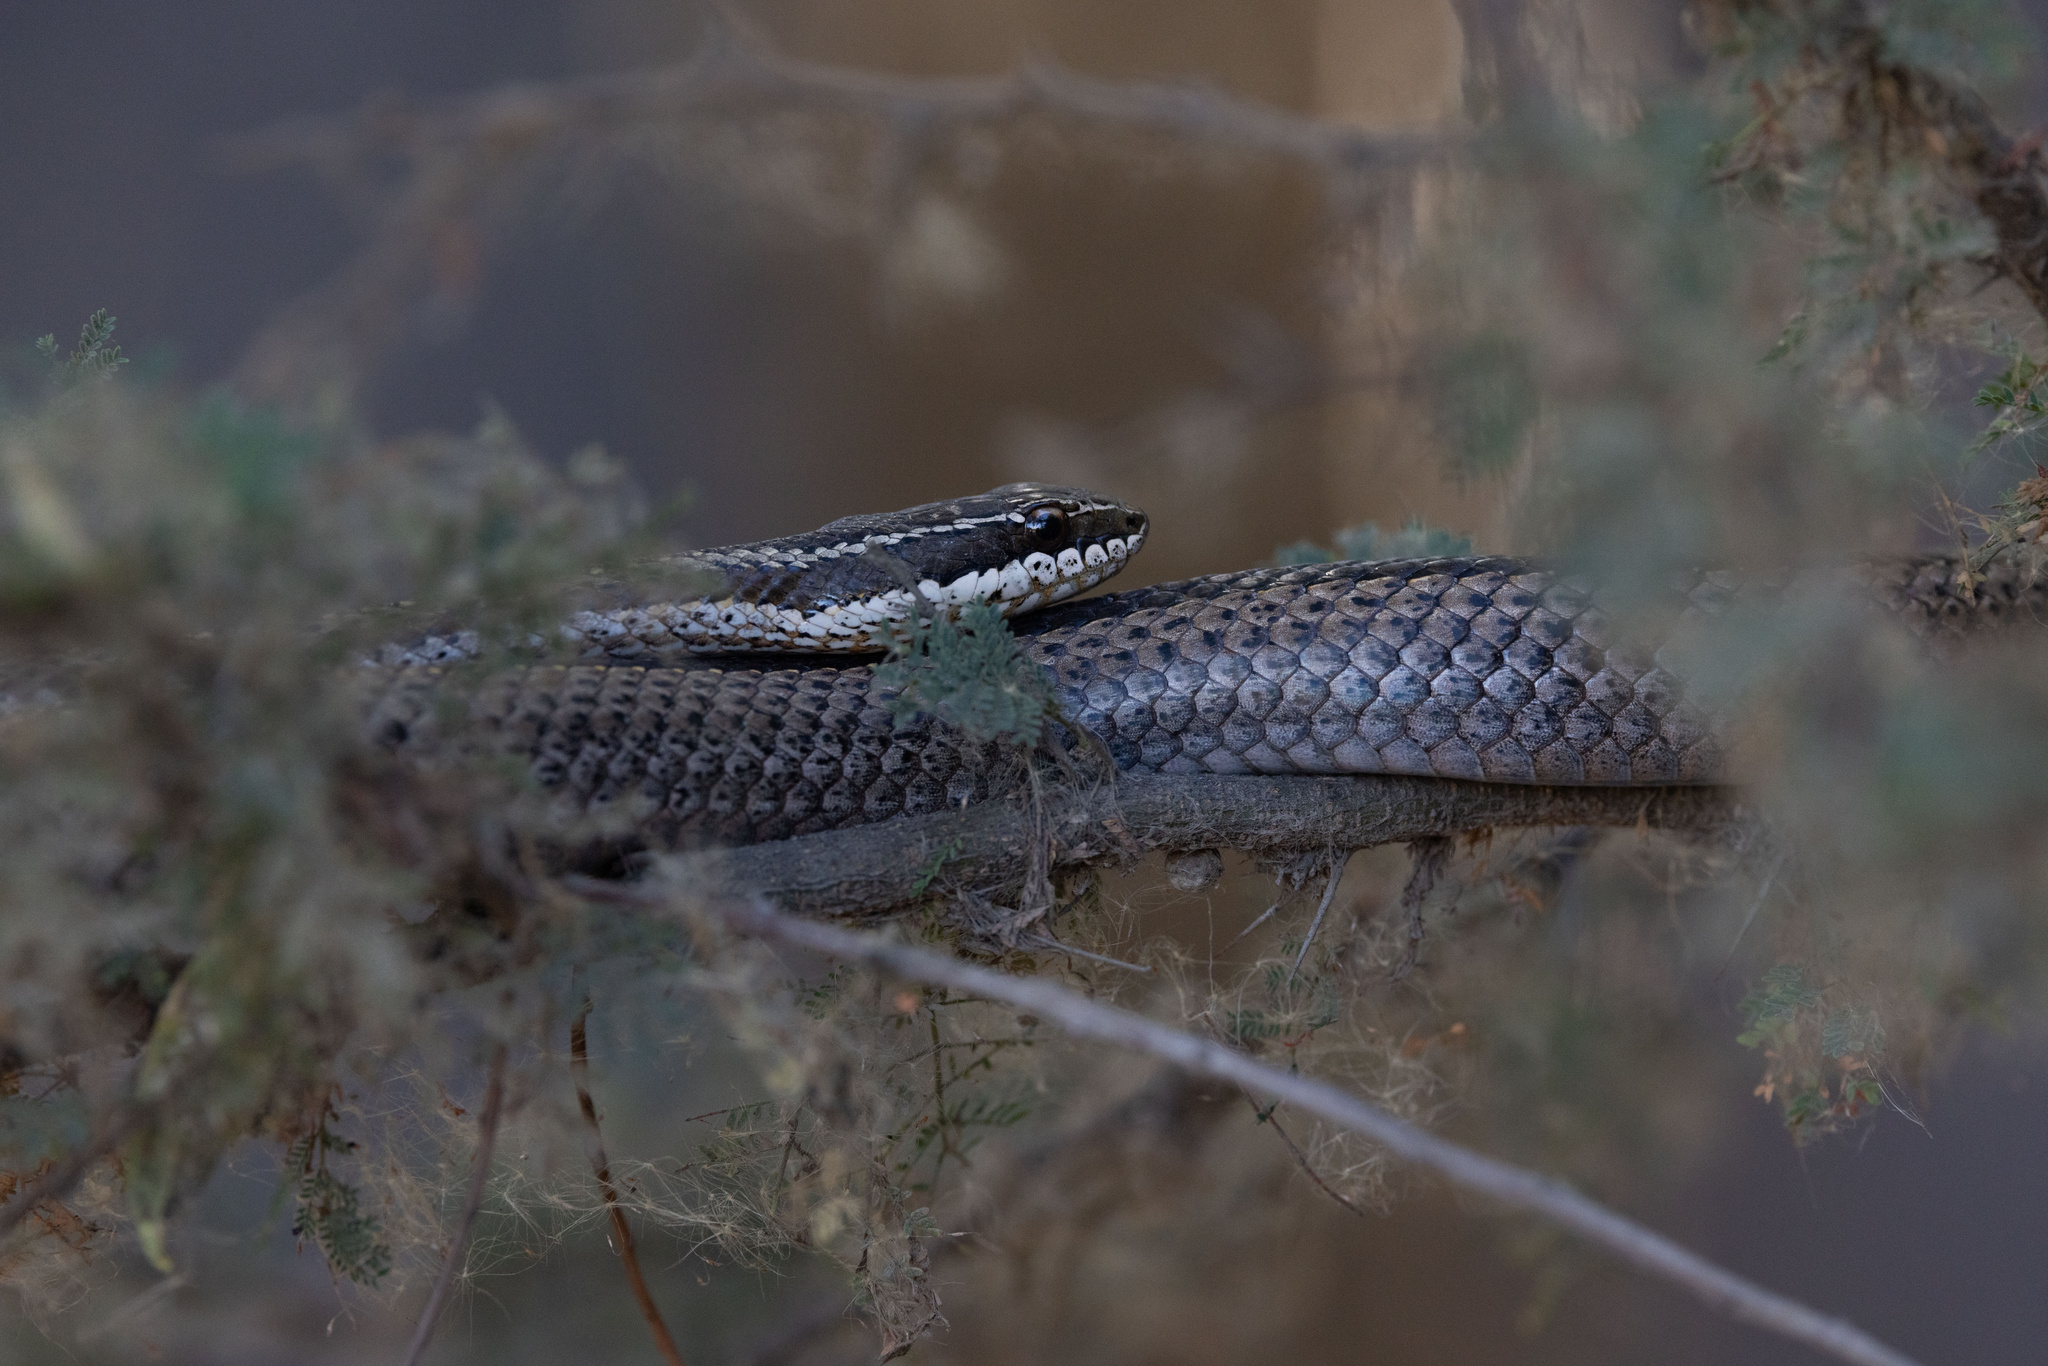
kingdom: Animalia
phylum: Chordata
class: Squamata
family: Colubridae
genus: Philodryas
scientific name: Philodryas chamissonis
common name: Chilean green racer
